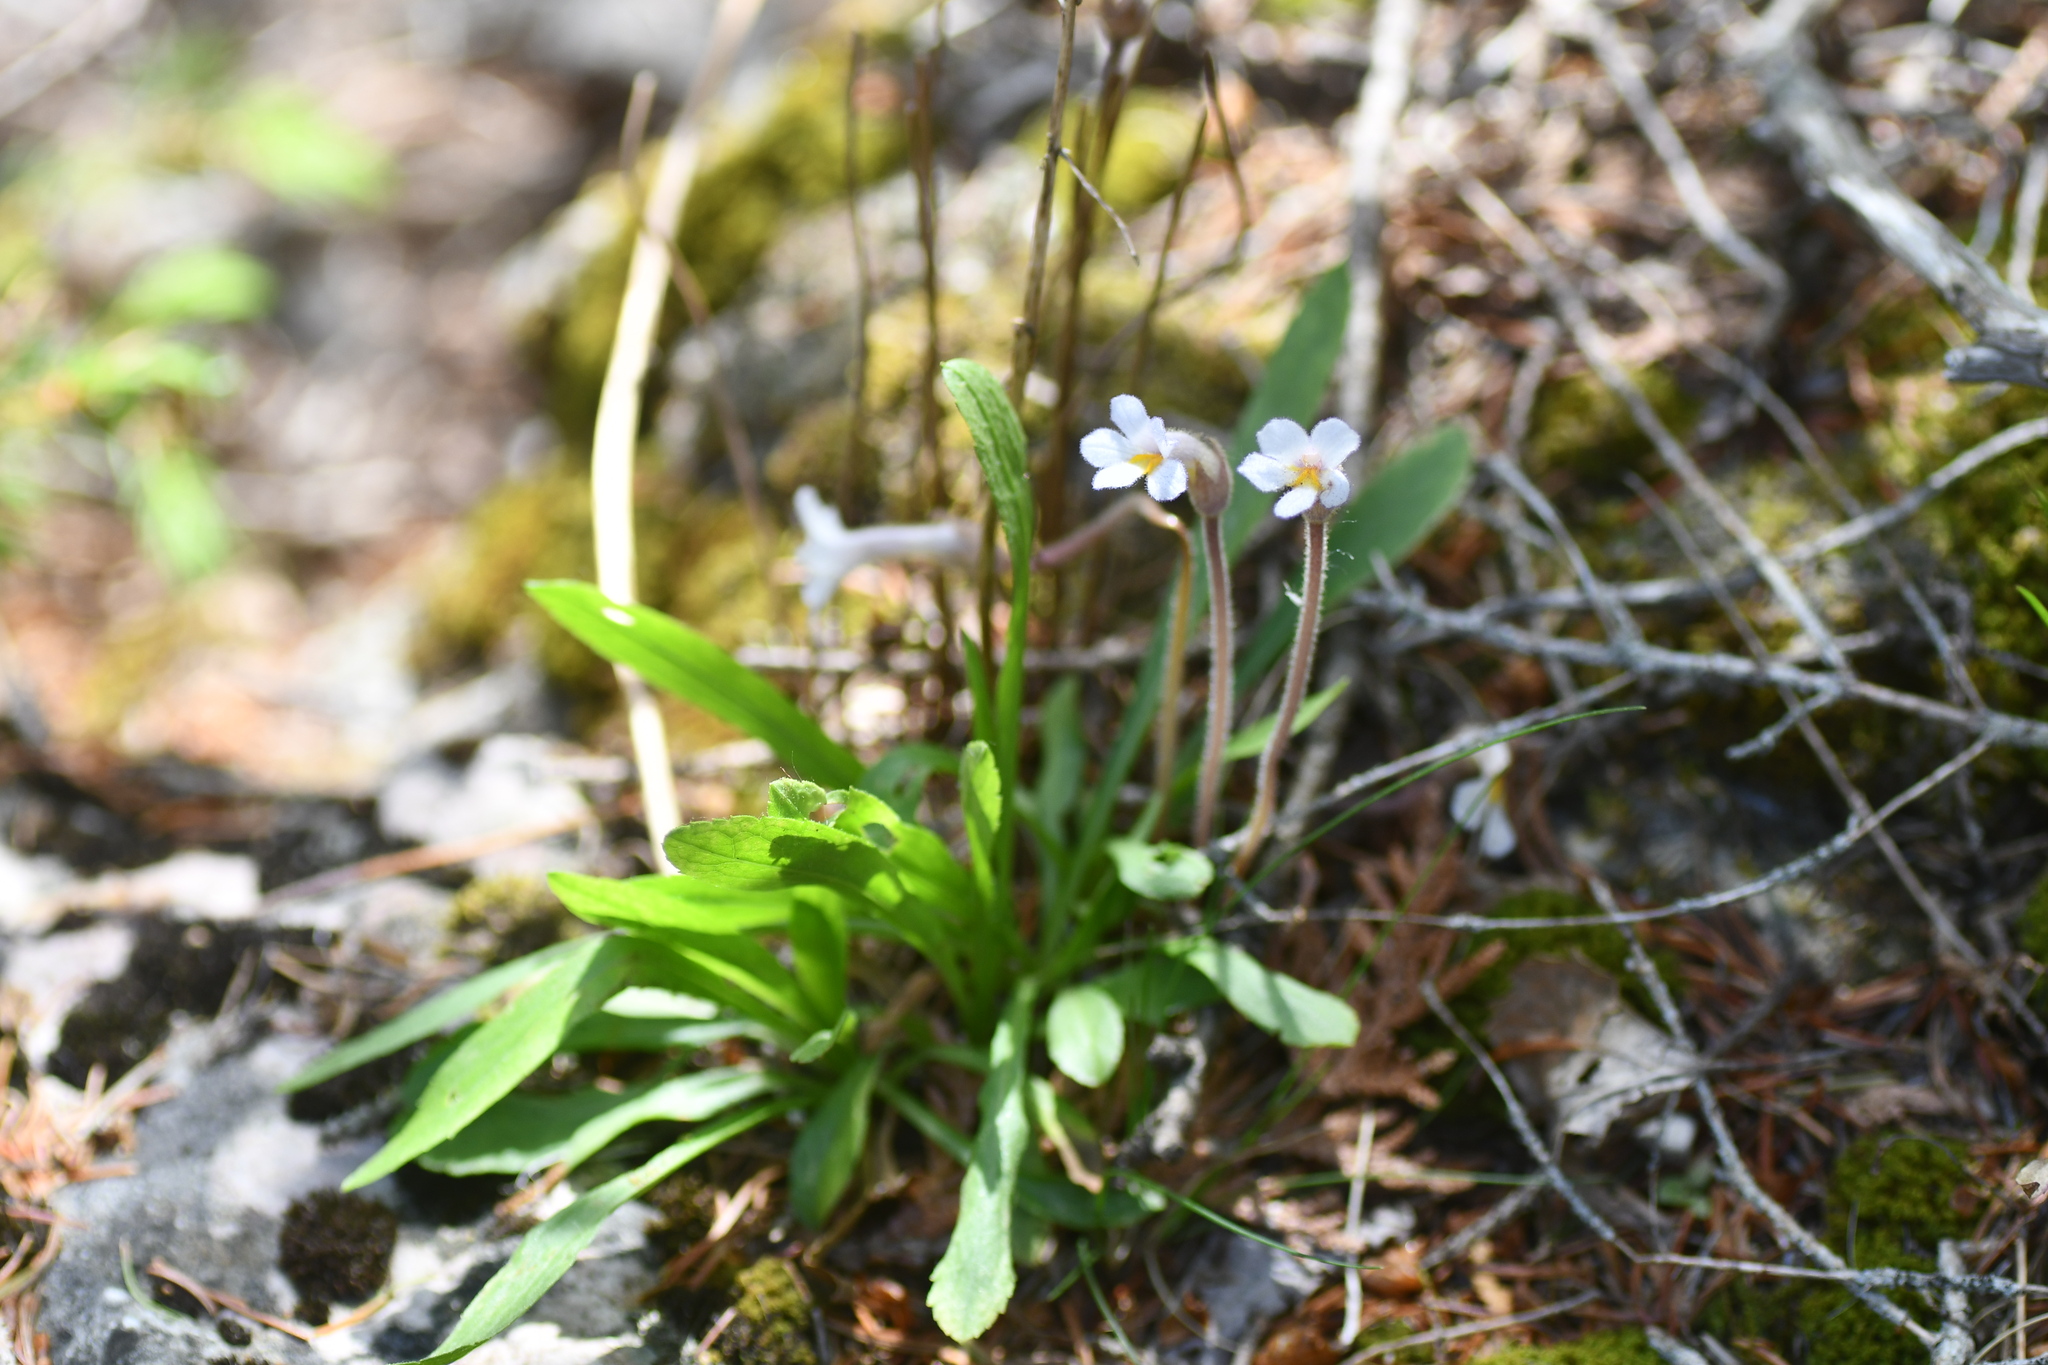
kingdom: Plantae
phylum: Tracheophyta
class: Magnoliopsida
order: Lamiales
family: Orobanchaceae
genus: Aphyllon
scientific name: Aphyllon uniflorum
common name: One-flowered broomrape
